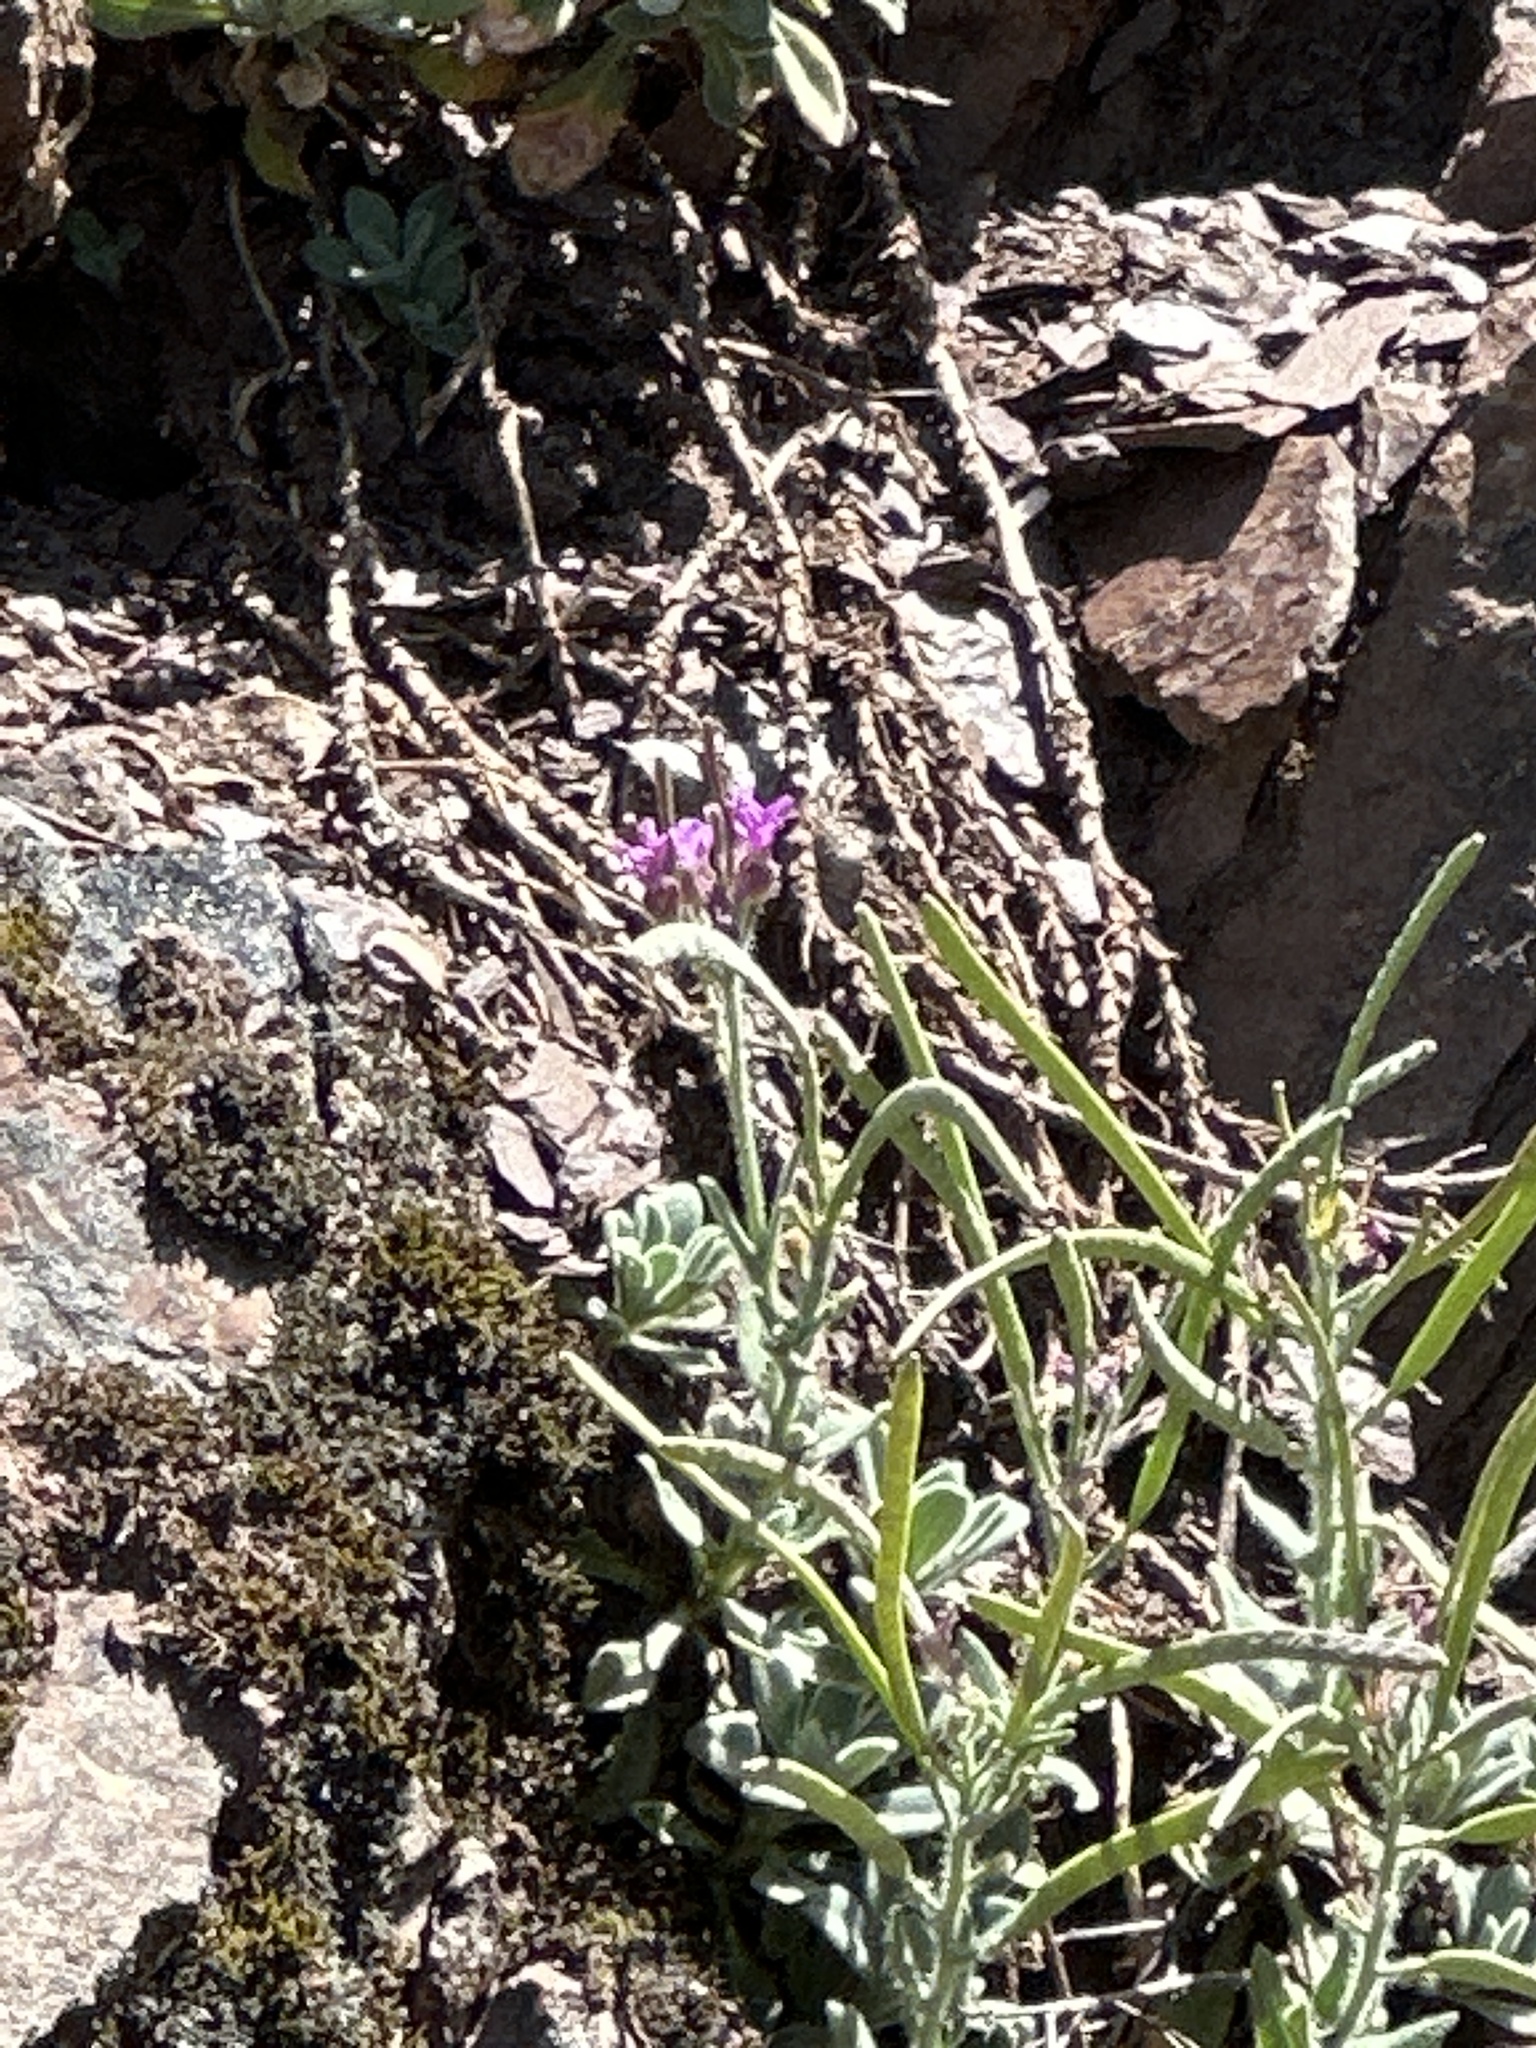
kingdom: Plantae
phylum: Tracheophyta
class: Magnoliopsida
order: Brassicales
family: Brassicaceae
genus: Boechera
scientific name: Boechera breweri
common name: Brewer's rockcress
